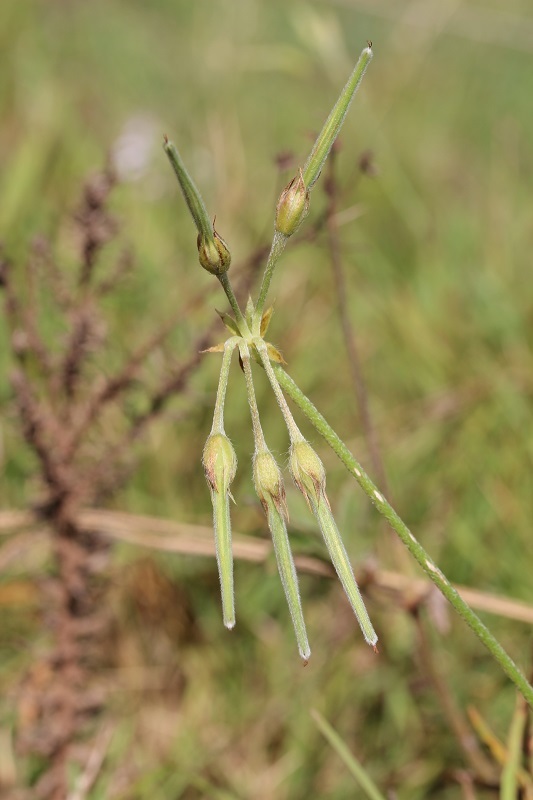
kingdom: Plantae
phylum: Tracheophyta
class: Magnoliopsida
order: Geraniales
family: Geraniaceae
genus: Pelargonium
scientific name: Pelargonium alchemilloides
